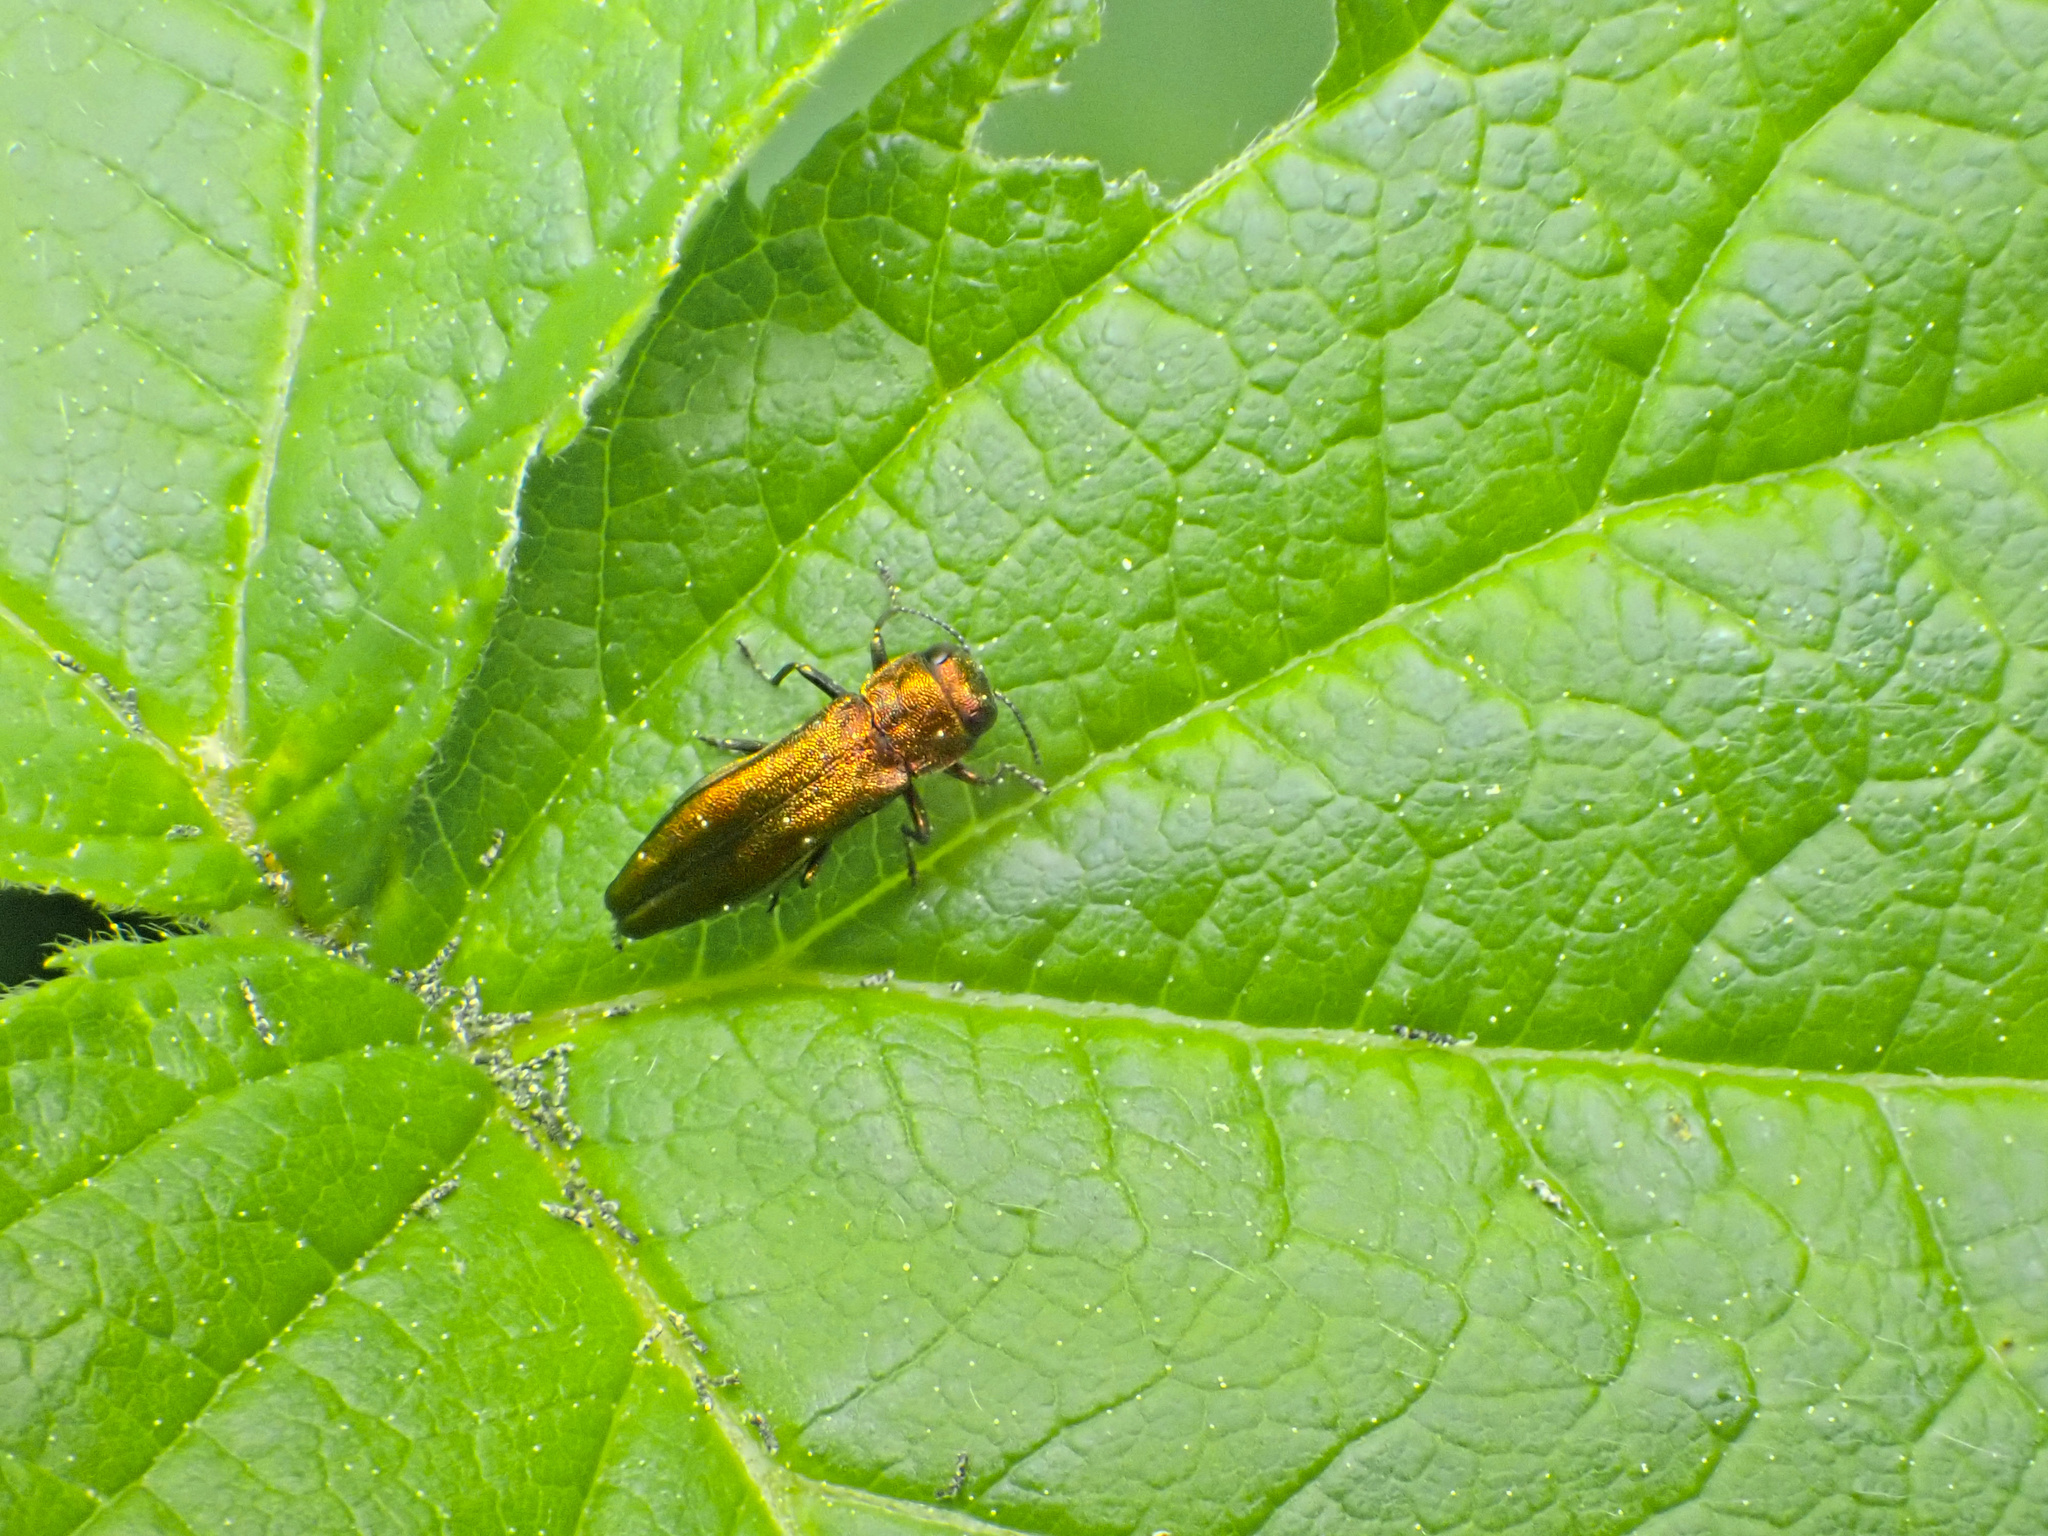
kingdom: Animalia
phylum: Arthropoda
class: Insecta
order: Coleoptera
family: Buprestidae
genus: Agrilus
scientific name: Agrilus cuprescens
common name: Rose stem girdler
